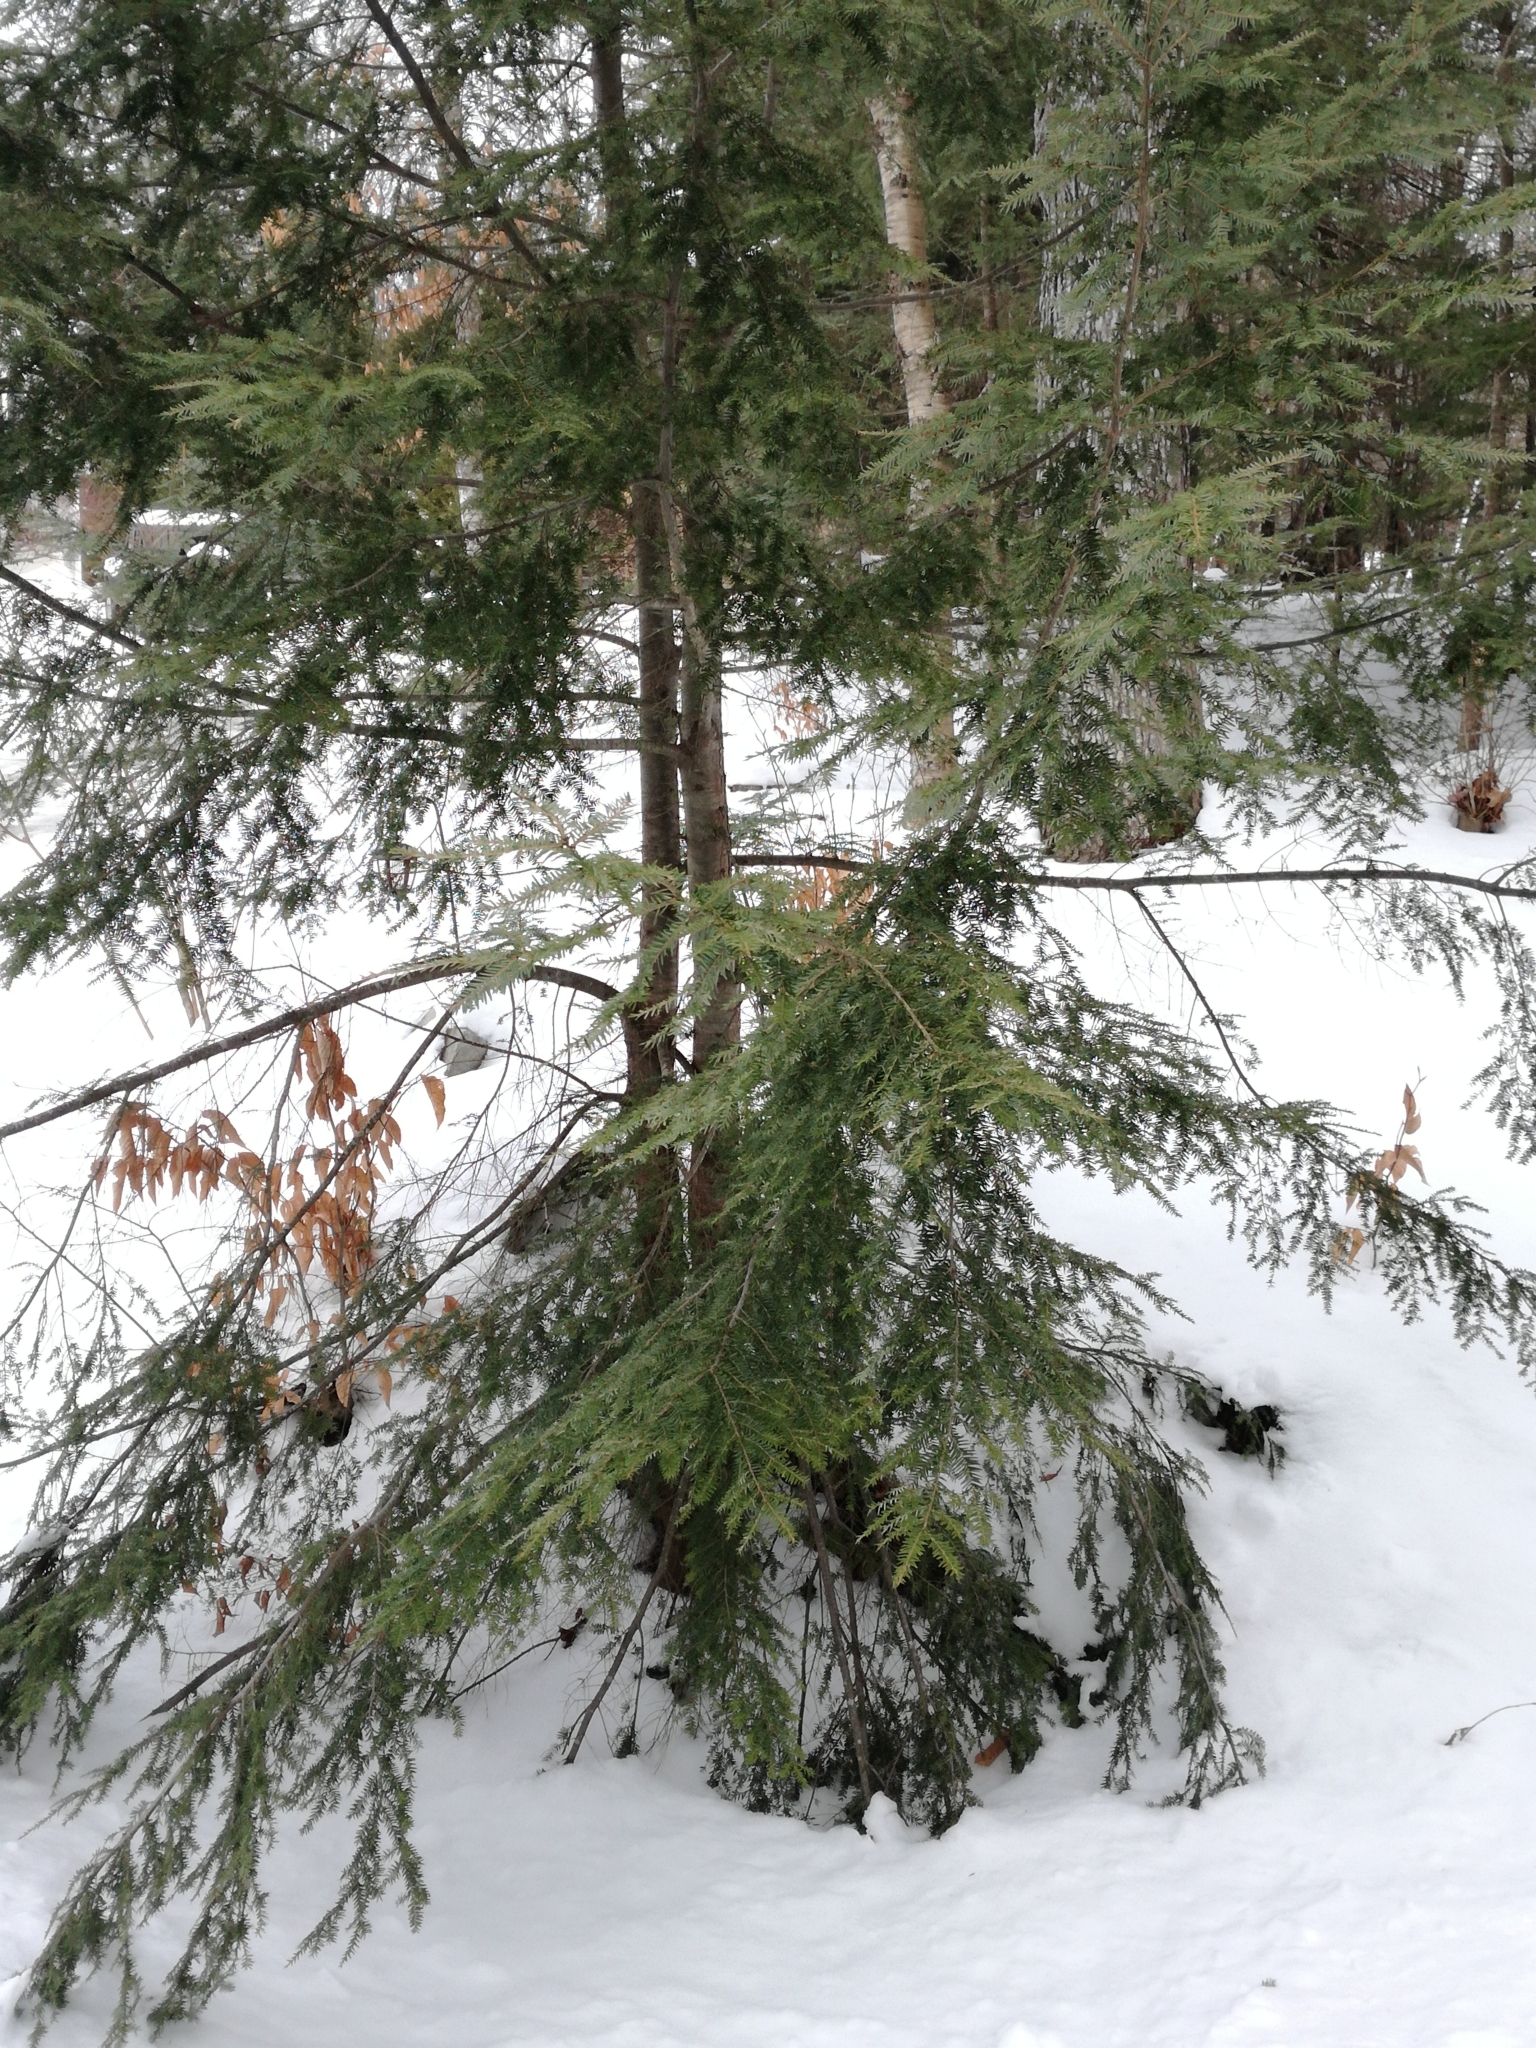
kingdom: Plantae
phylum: Tracheophyta
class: Pinopsida
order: Pinales
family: Pinaceae
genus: Tsuga
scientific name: Tsuga canadensis
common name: Eastern hemlock
